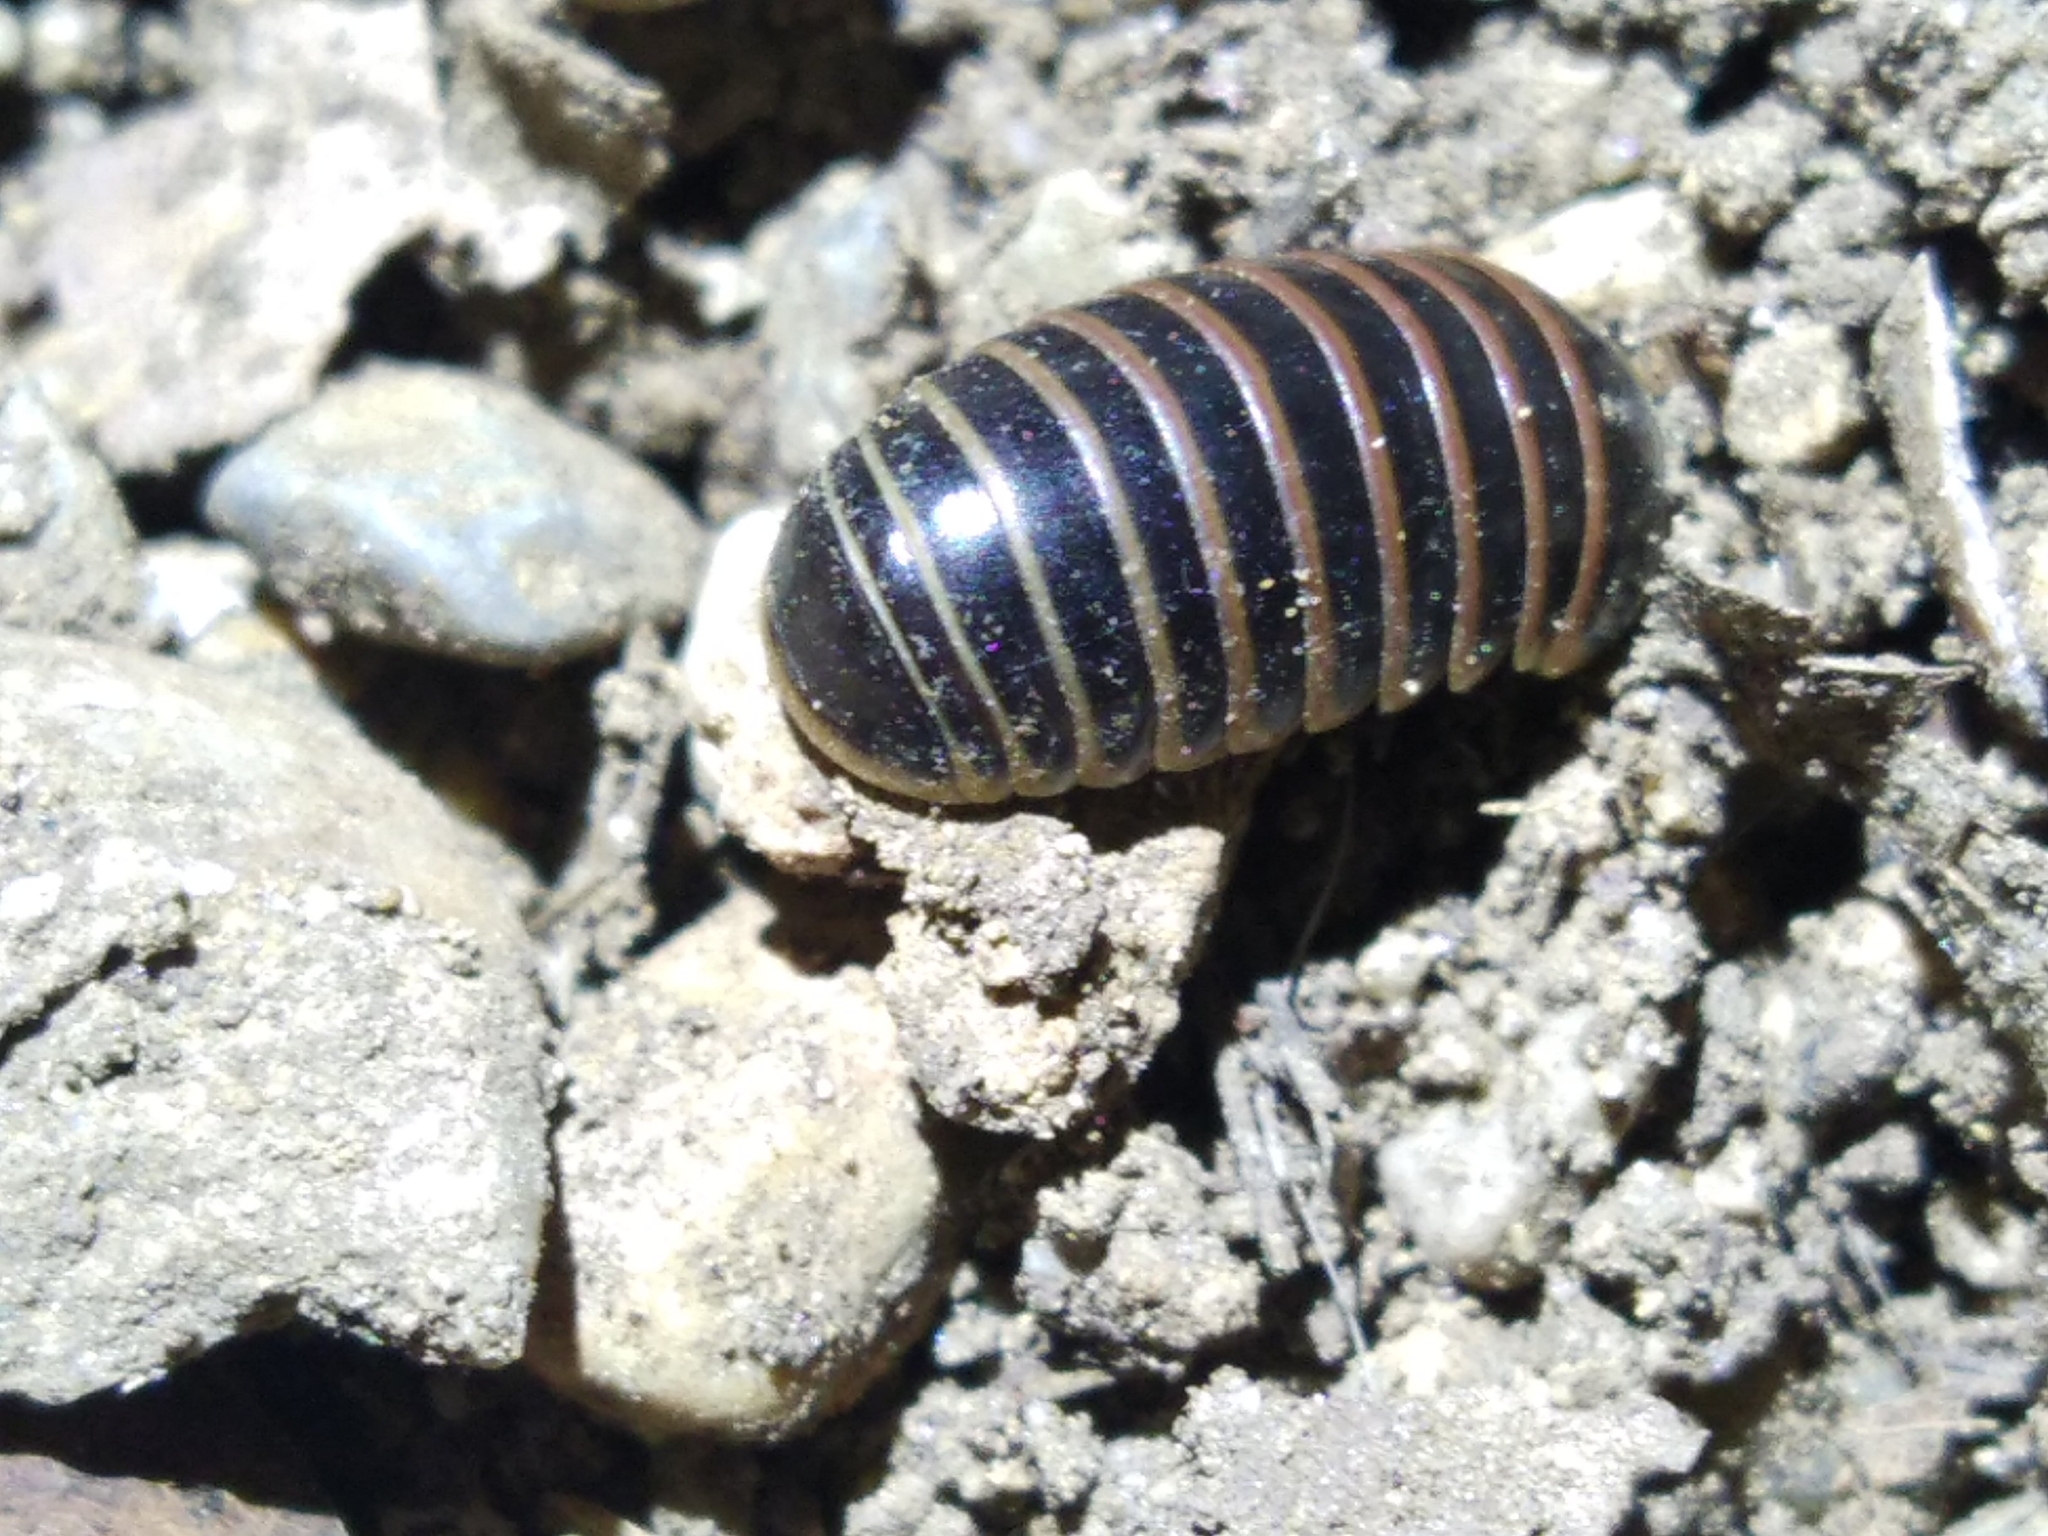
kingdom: Animalia
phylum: Arthropoda
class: Diplopoda
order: Glomerida
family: Glomeridae
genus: Glomeris
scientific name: Glomeris marginata
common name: Bordered pill millipede
